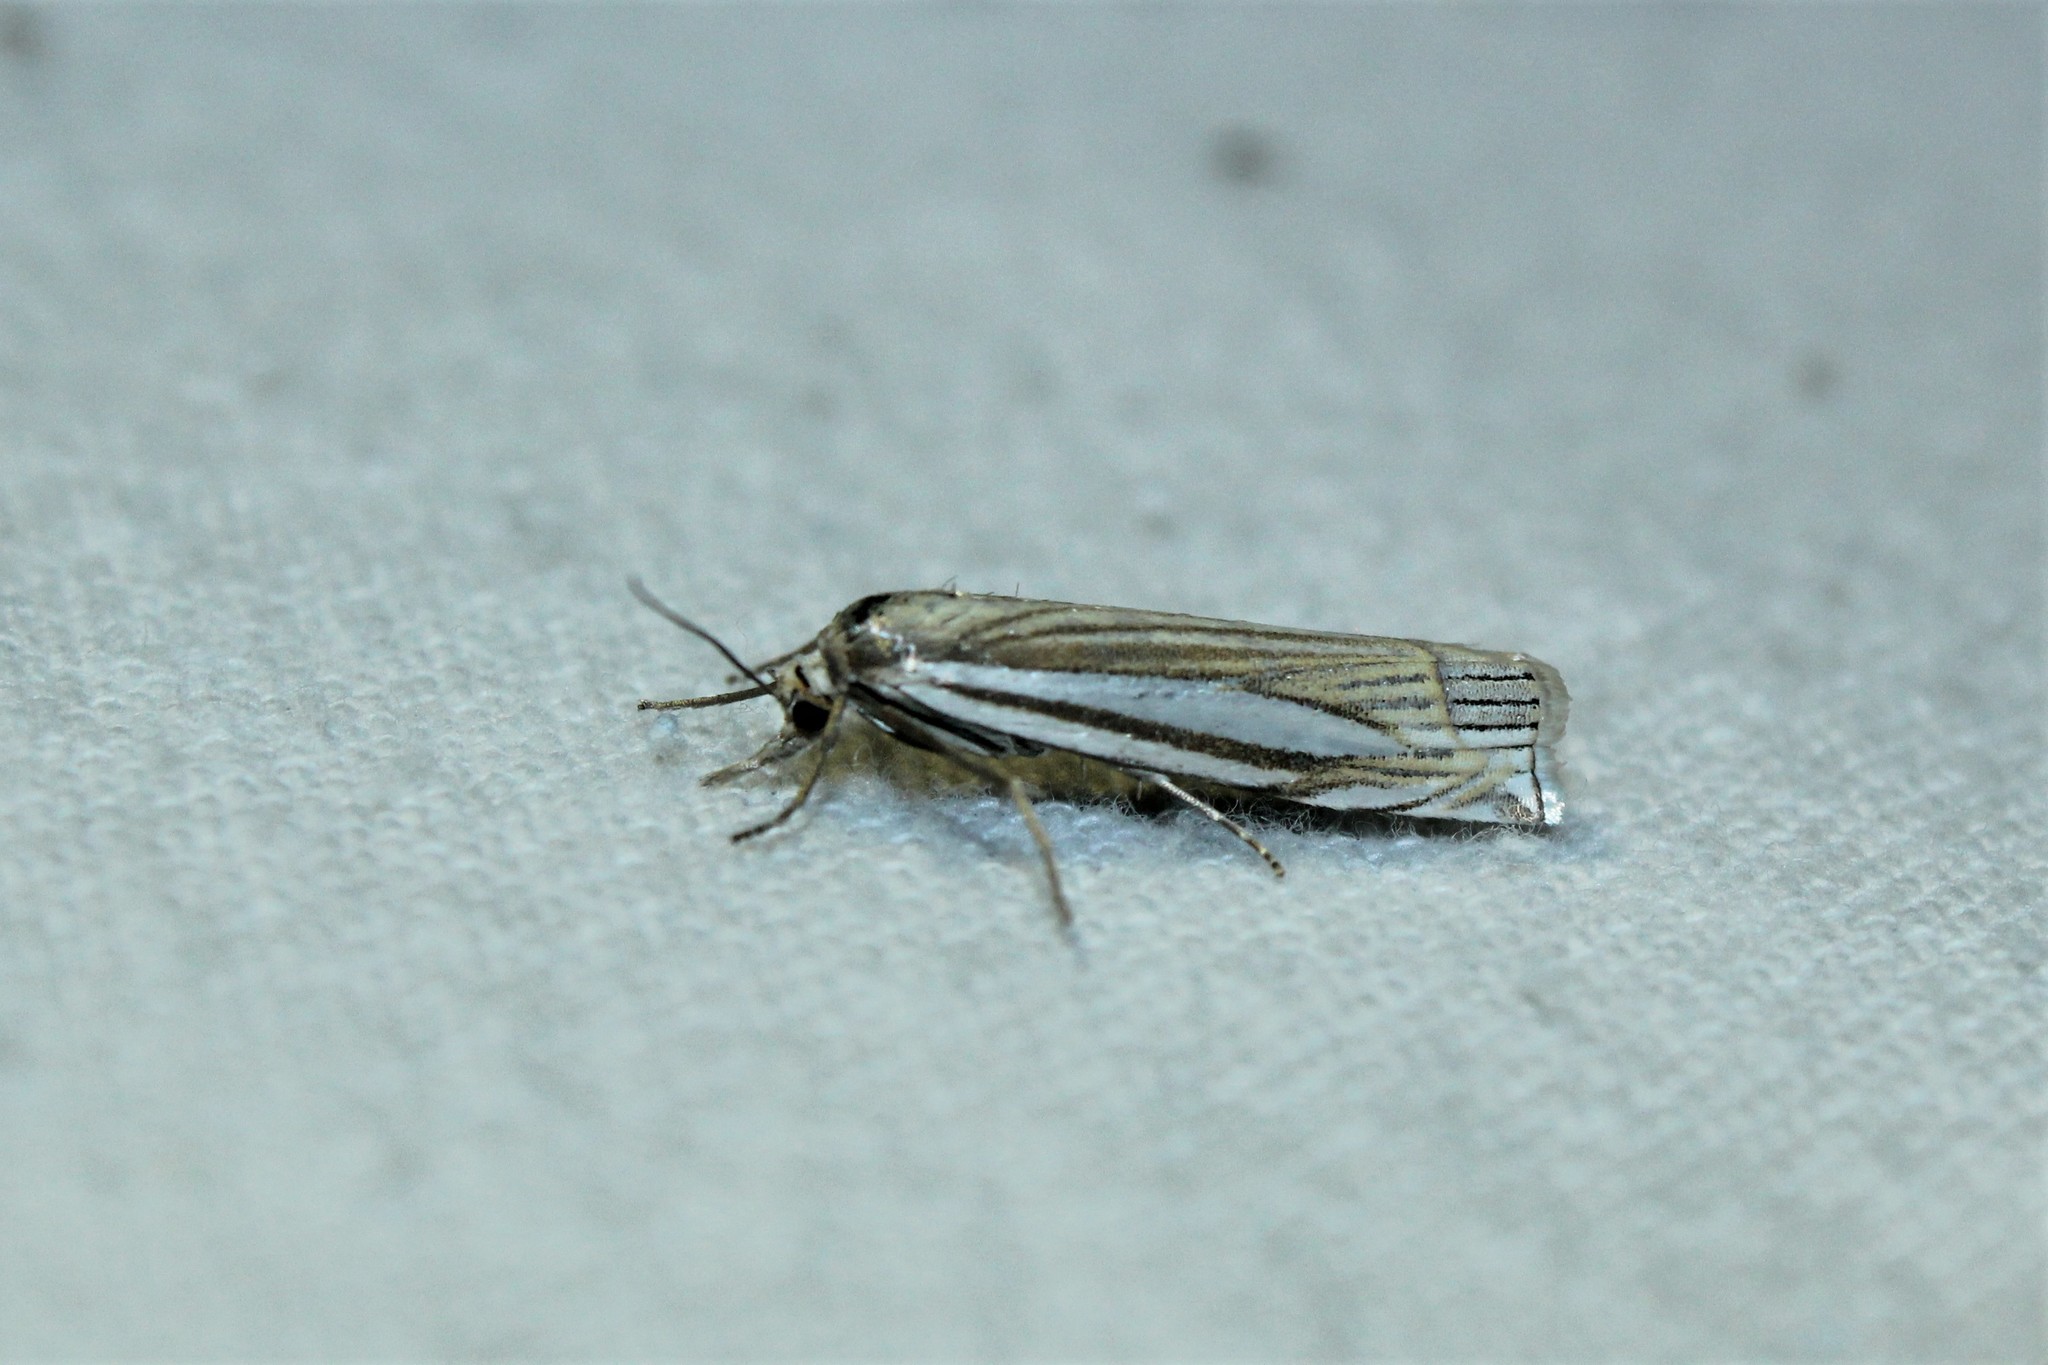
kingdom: Animalia
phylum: Arthropoda
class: Insecta
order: Lepidoptera
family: Crambidae
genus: Crambus
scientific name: Crambus laqueatellus
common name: Eastern grass-veneer
